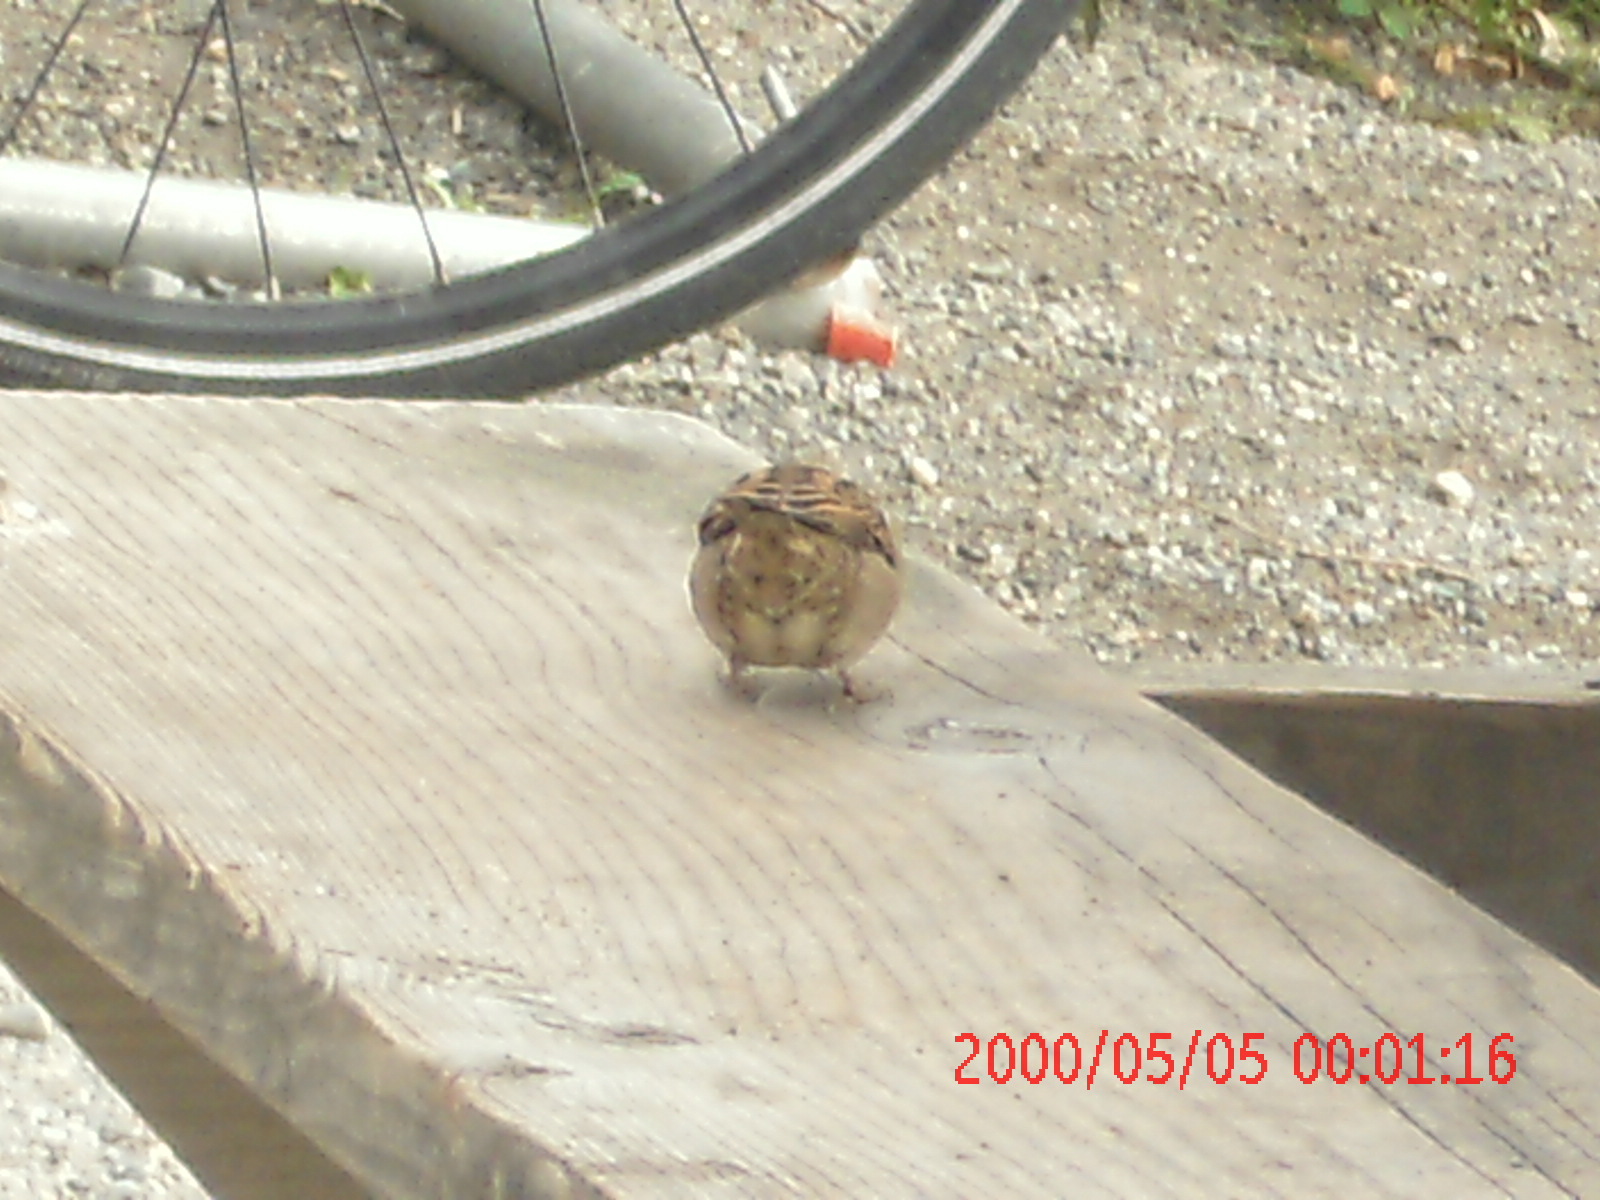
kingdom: Animalia
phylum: Chordata
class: Aves
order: Passeriformes
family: Passeridae
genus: Passer
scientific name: Passer domesticus
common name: House sparrow
